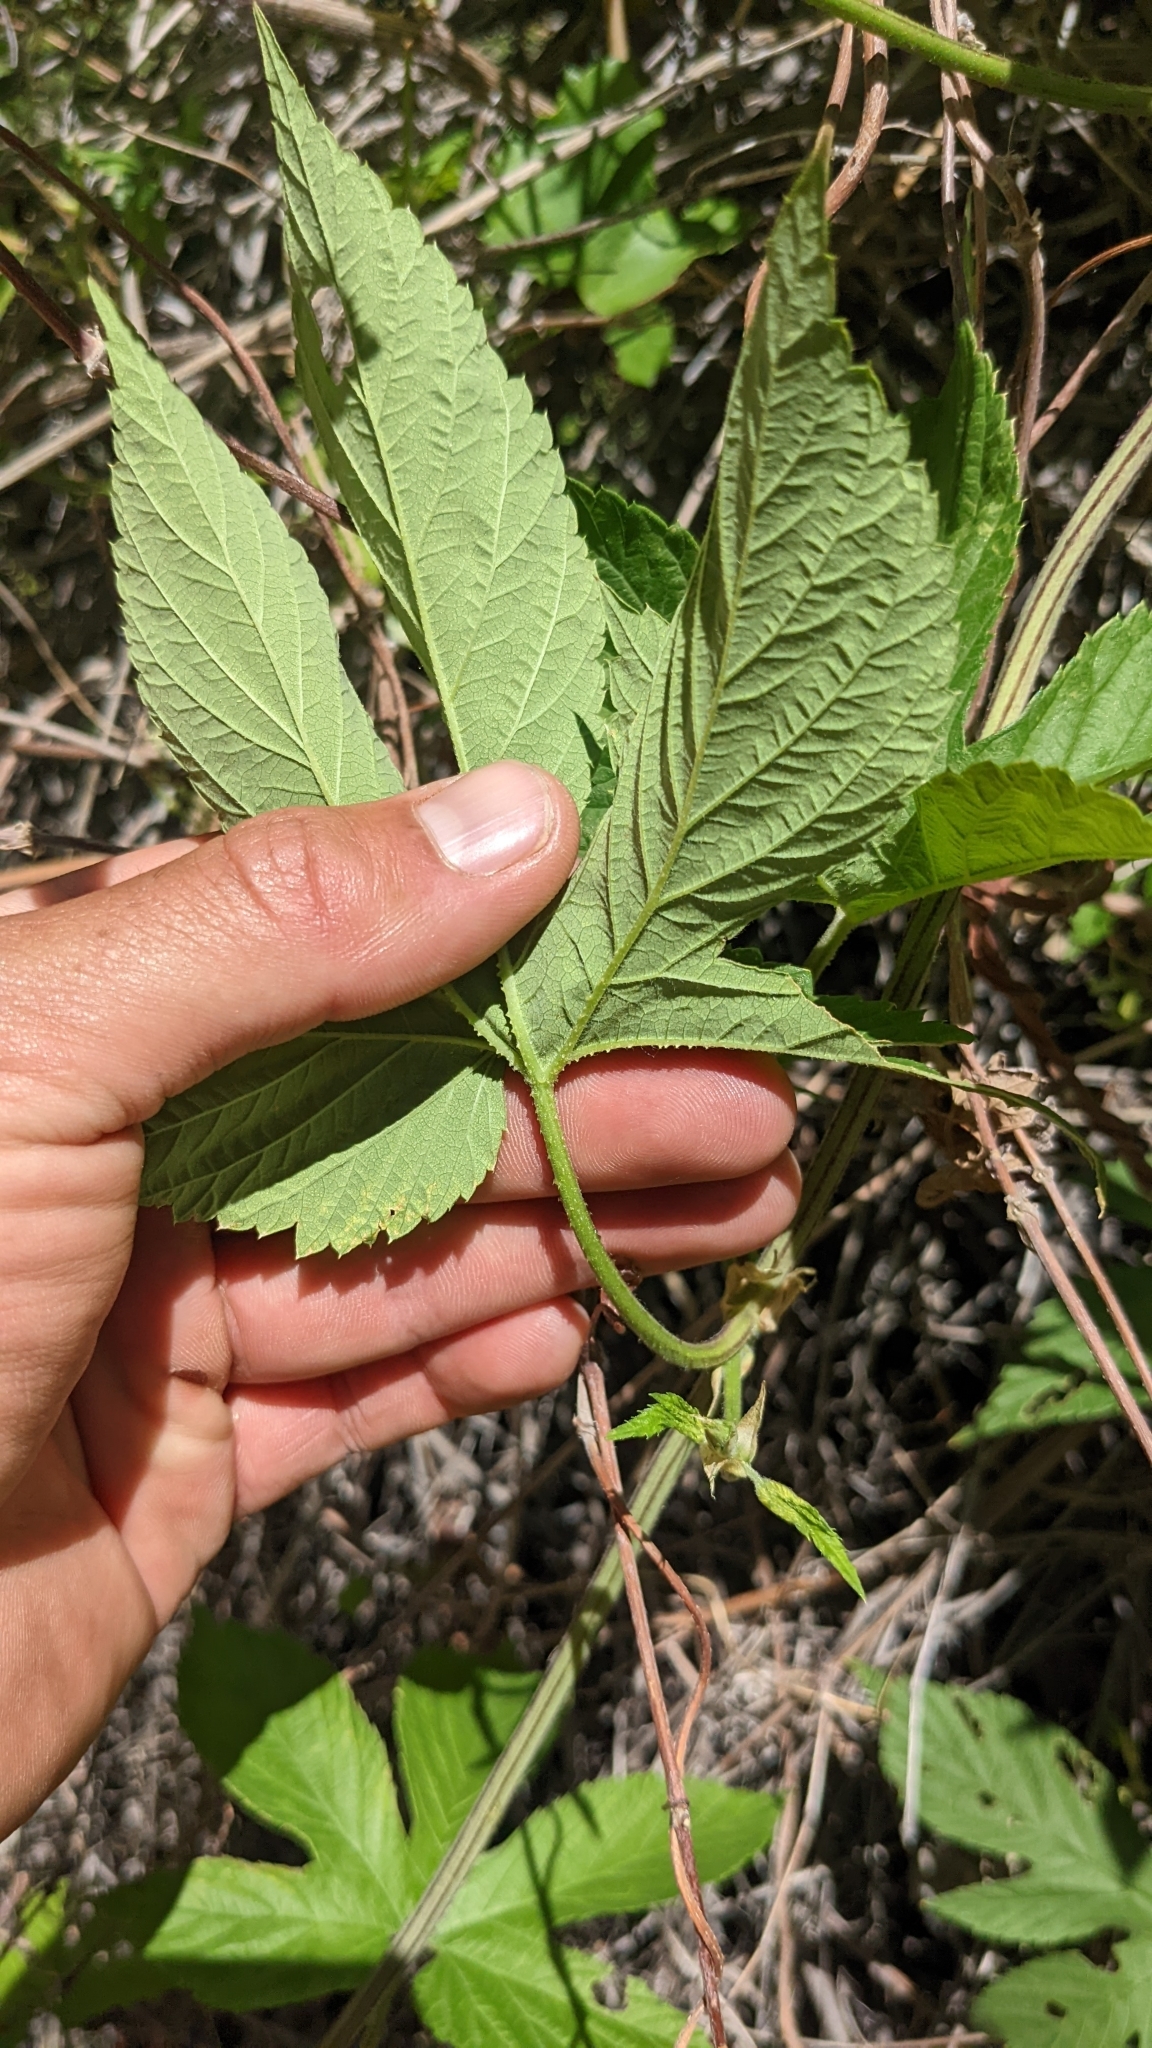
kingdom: Plantae
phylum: Tracheophyta
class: Magnoliopsida
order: Rosales
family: Cannabaceae
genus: Humulus
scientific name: Humulus lupulus
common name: Hop
